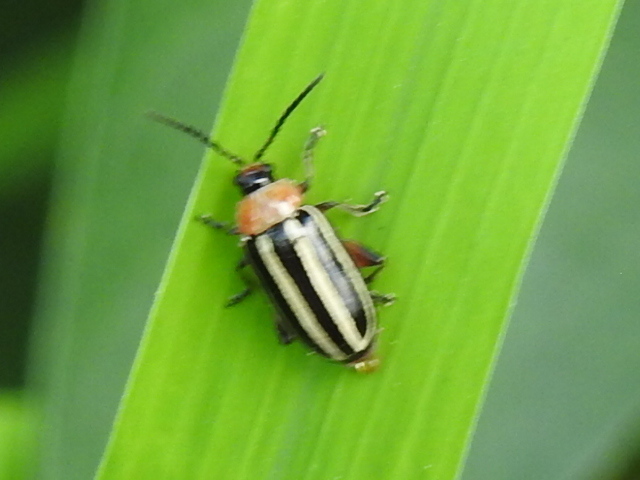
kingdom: Animalia
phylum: Arthropoda
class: Insecta
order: Coleoptera
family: Chrysomelidae
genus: Disonycha
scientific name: Disonycha glabrata
